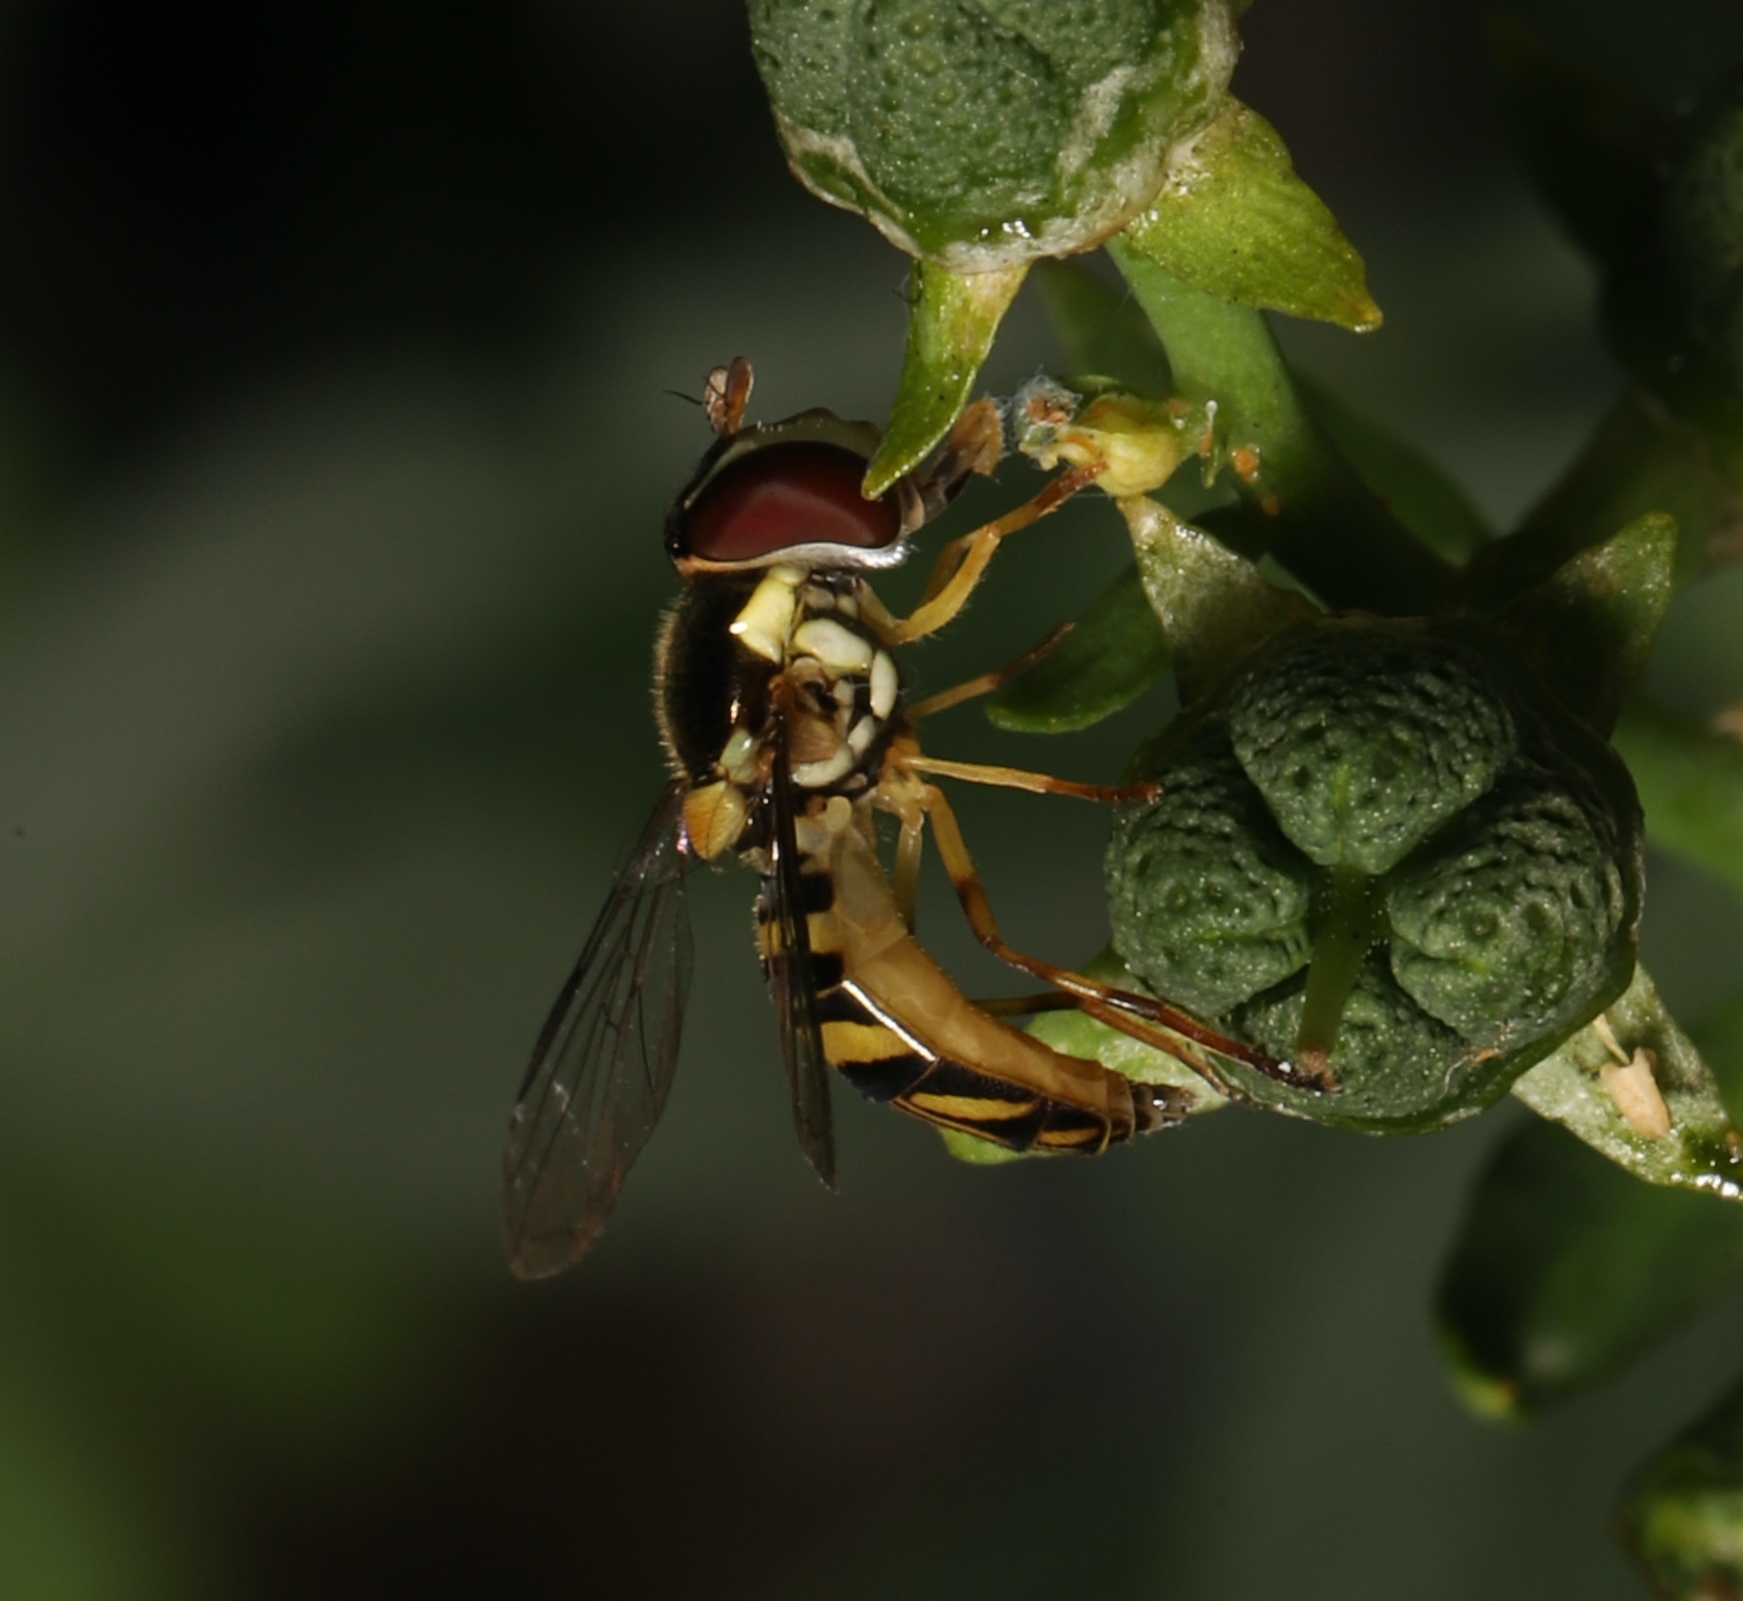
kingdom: Animalia
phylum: Arthropoda
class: Insecta
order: Diptera
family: Syrphidae
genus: Allograpta
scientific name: Allograpta obliqua
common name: Common oblique syrphid
